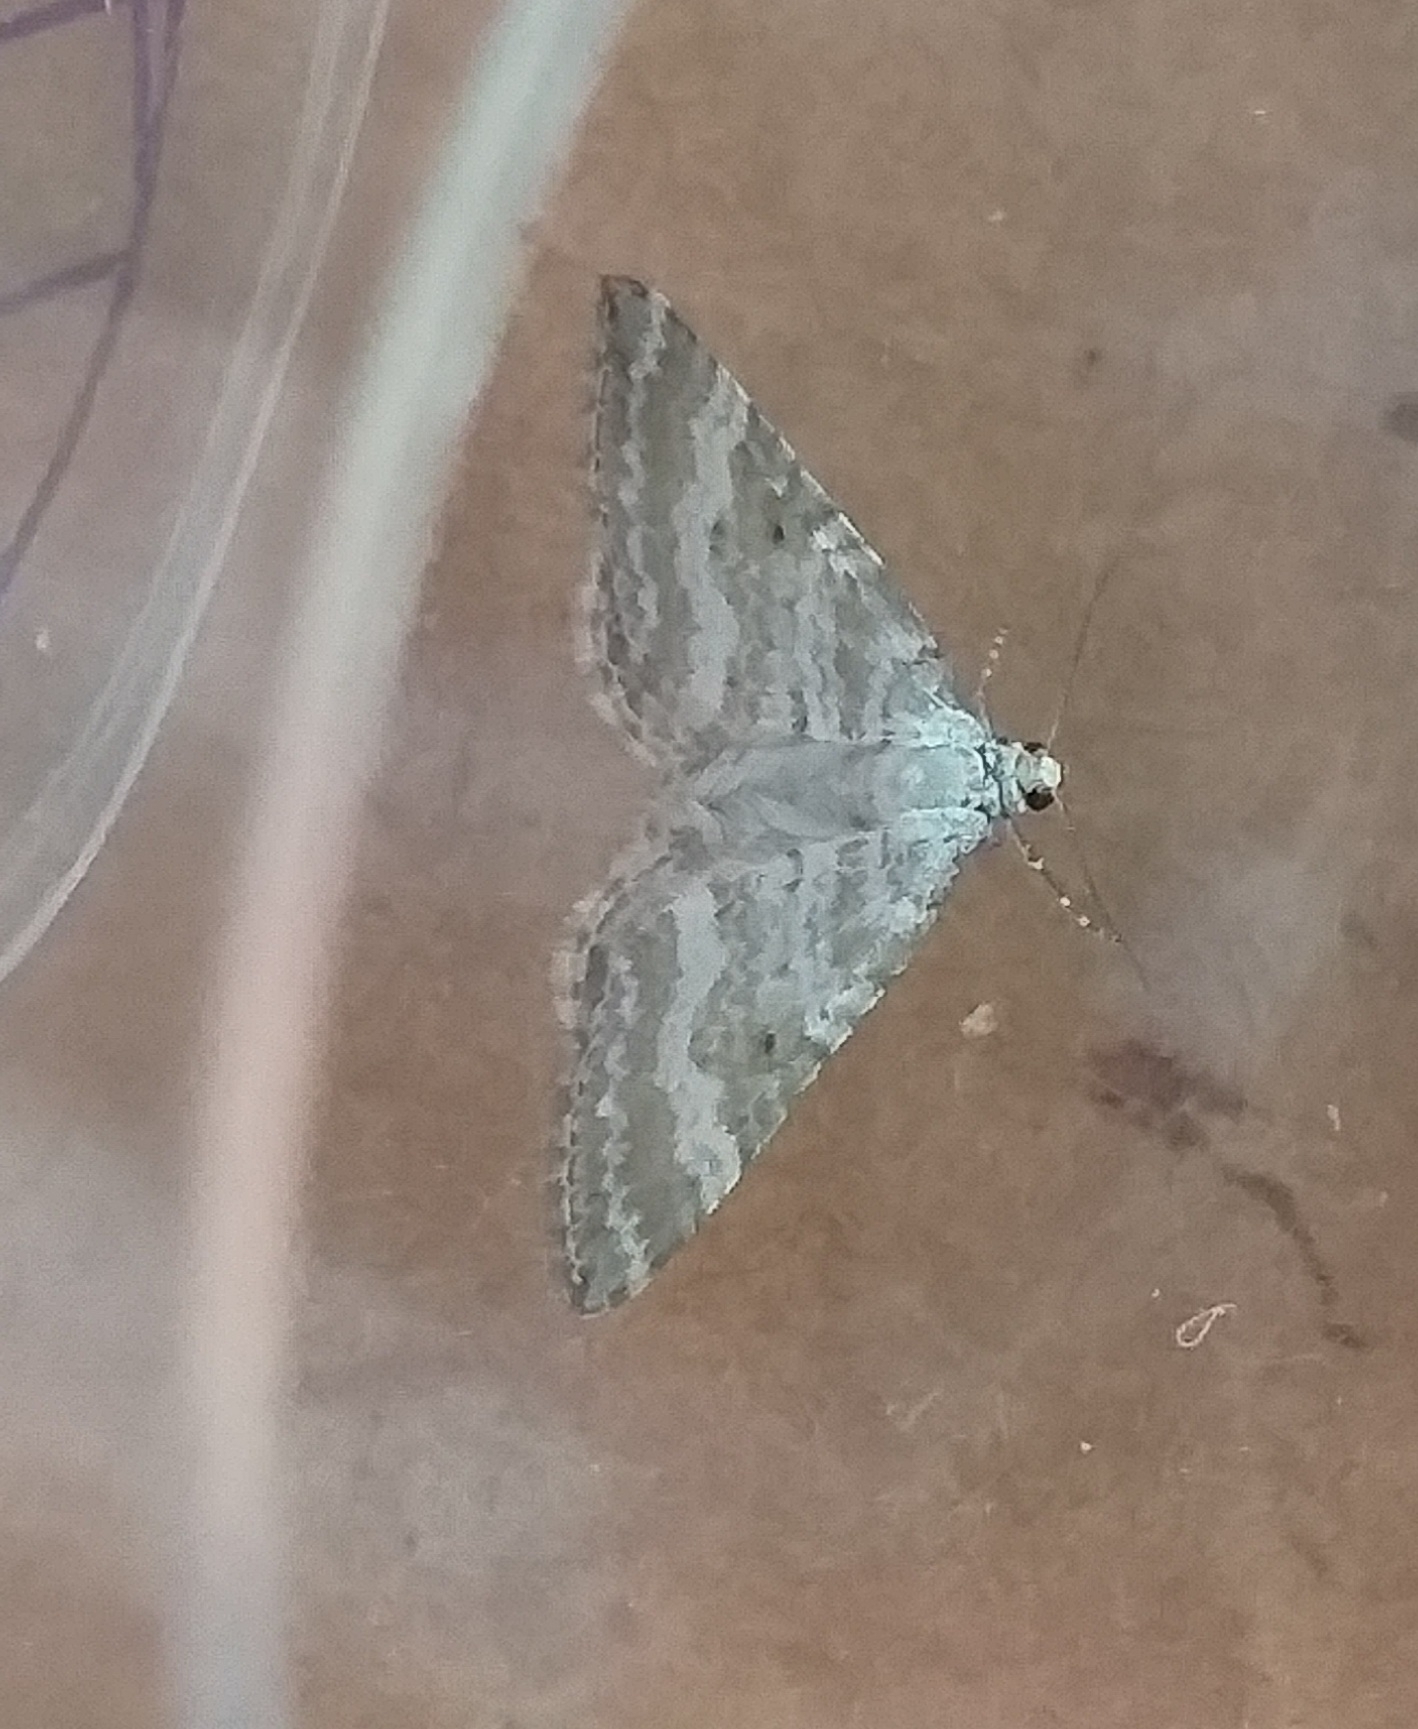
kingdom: Animalia
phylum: Arthropoda
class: Insecta
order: Lepidoptera
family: Geometridae
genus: Perizoma
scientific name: Perizoma albulata
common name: Grass rivulet
